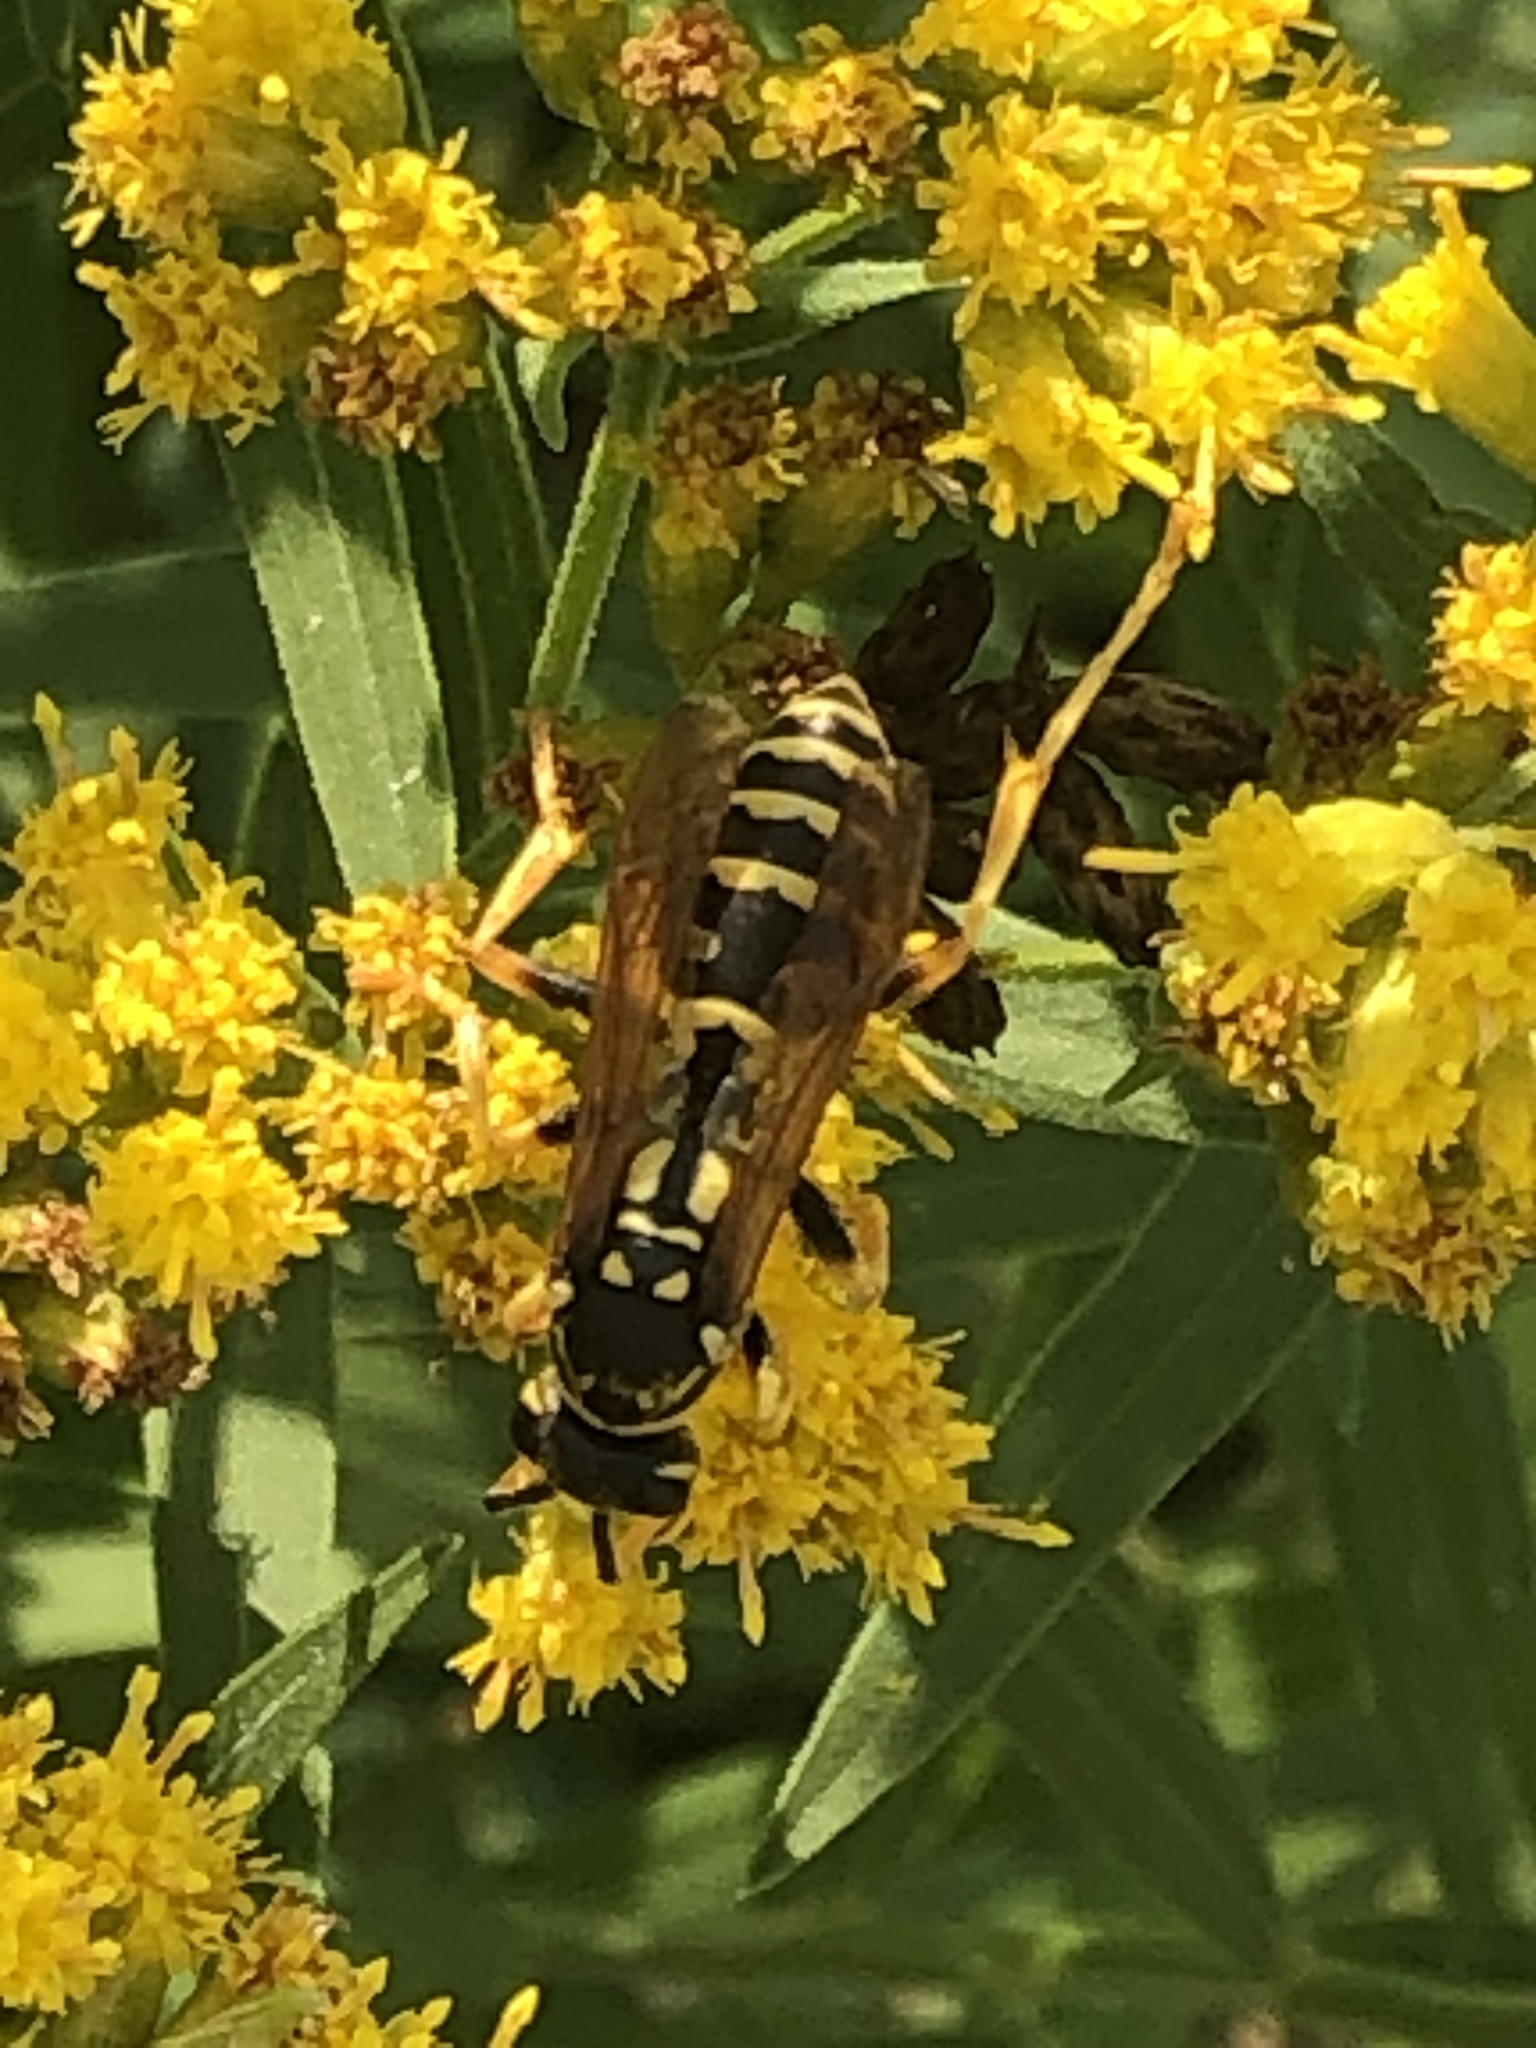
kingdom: Animalia
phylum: Arthropoda
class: Insecta
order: Hymenoptera
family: Eumenidae
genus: Polistes
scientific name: Polistes dominula
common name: Paper wasp
